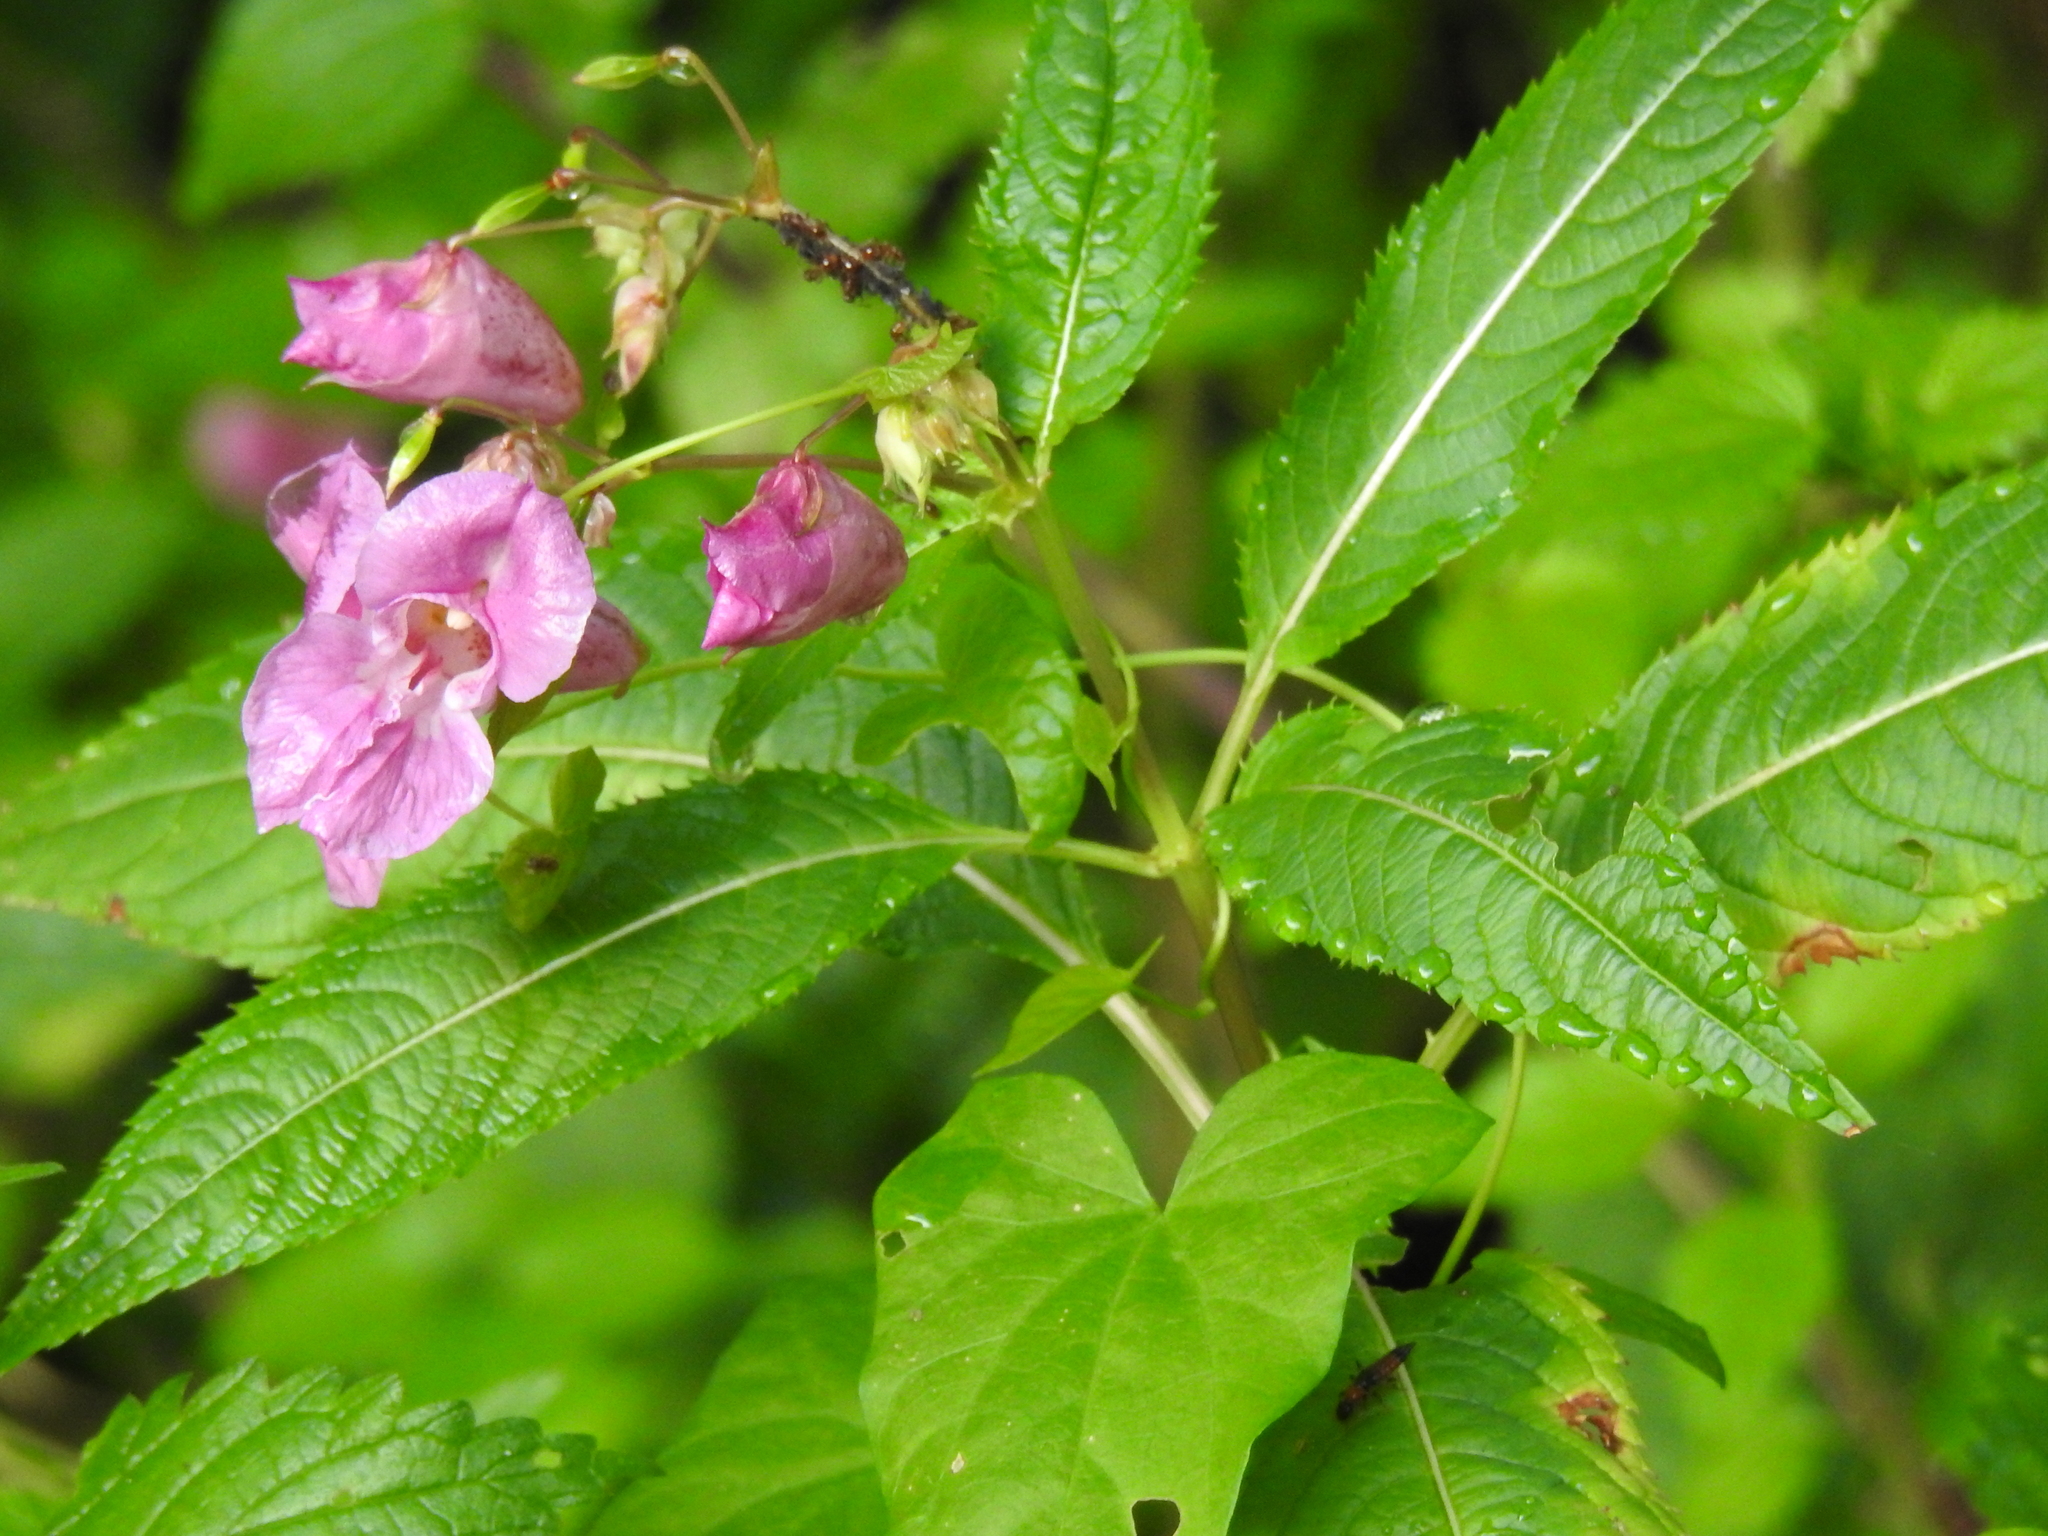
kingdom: Plantae
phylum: Tracheophyta
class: Magnoliopsida
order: Ericales
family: Balsaminaceae
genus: Impatiens
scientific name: Impatiens glandulifera
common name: Himalayan balsam
